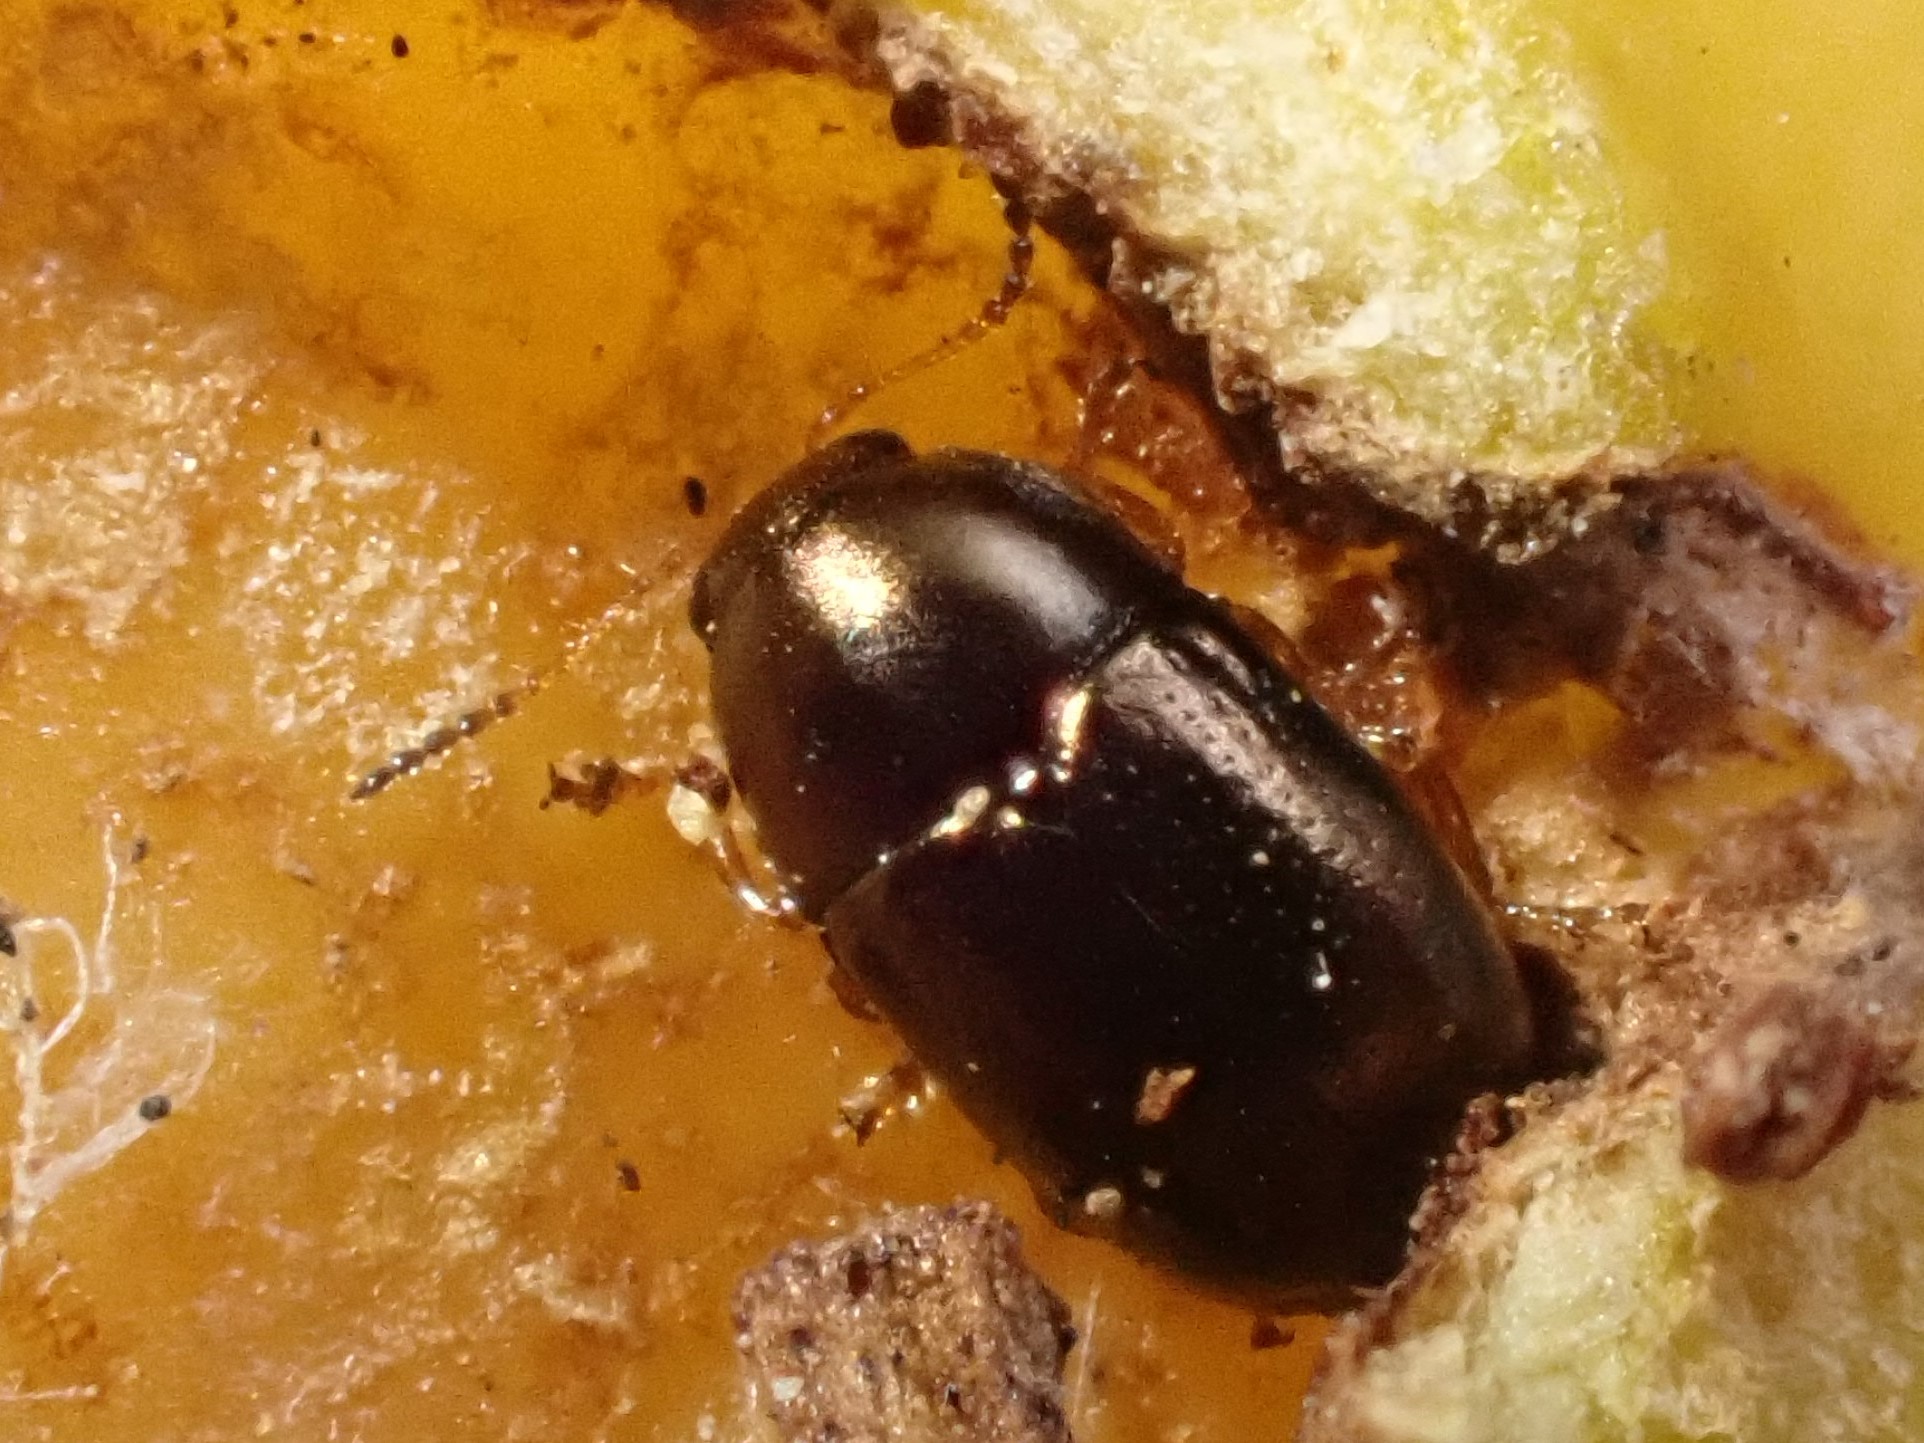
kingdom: Animalia
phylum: Arthropoda
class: Insecta
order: Coleoptera
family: Chrysomelidae
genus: Diachus
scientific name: Diachus auratus
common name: Bronze leaf beetle
